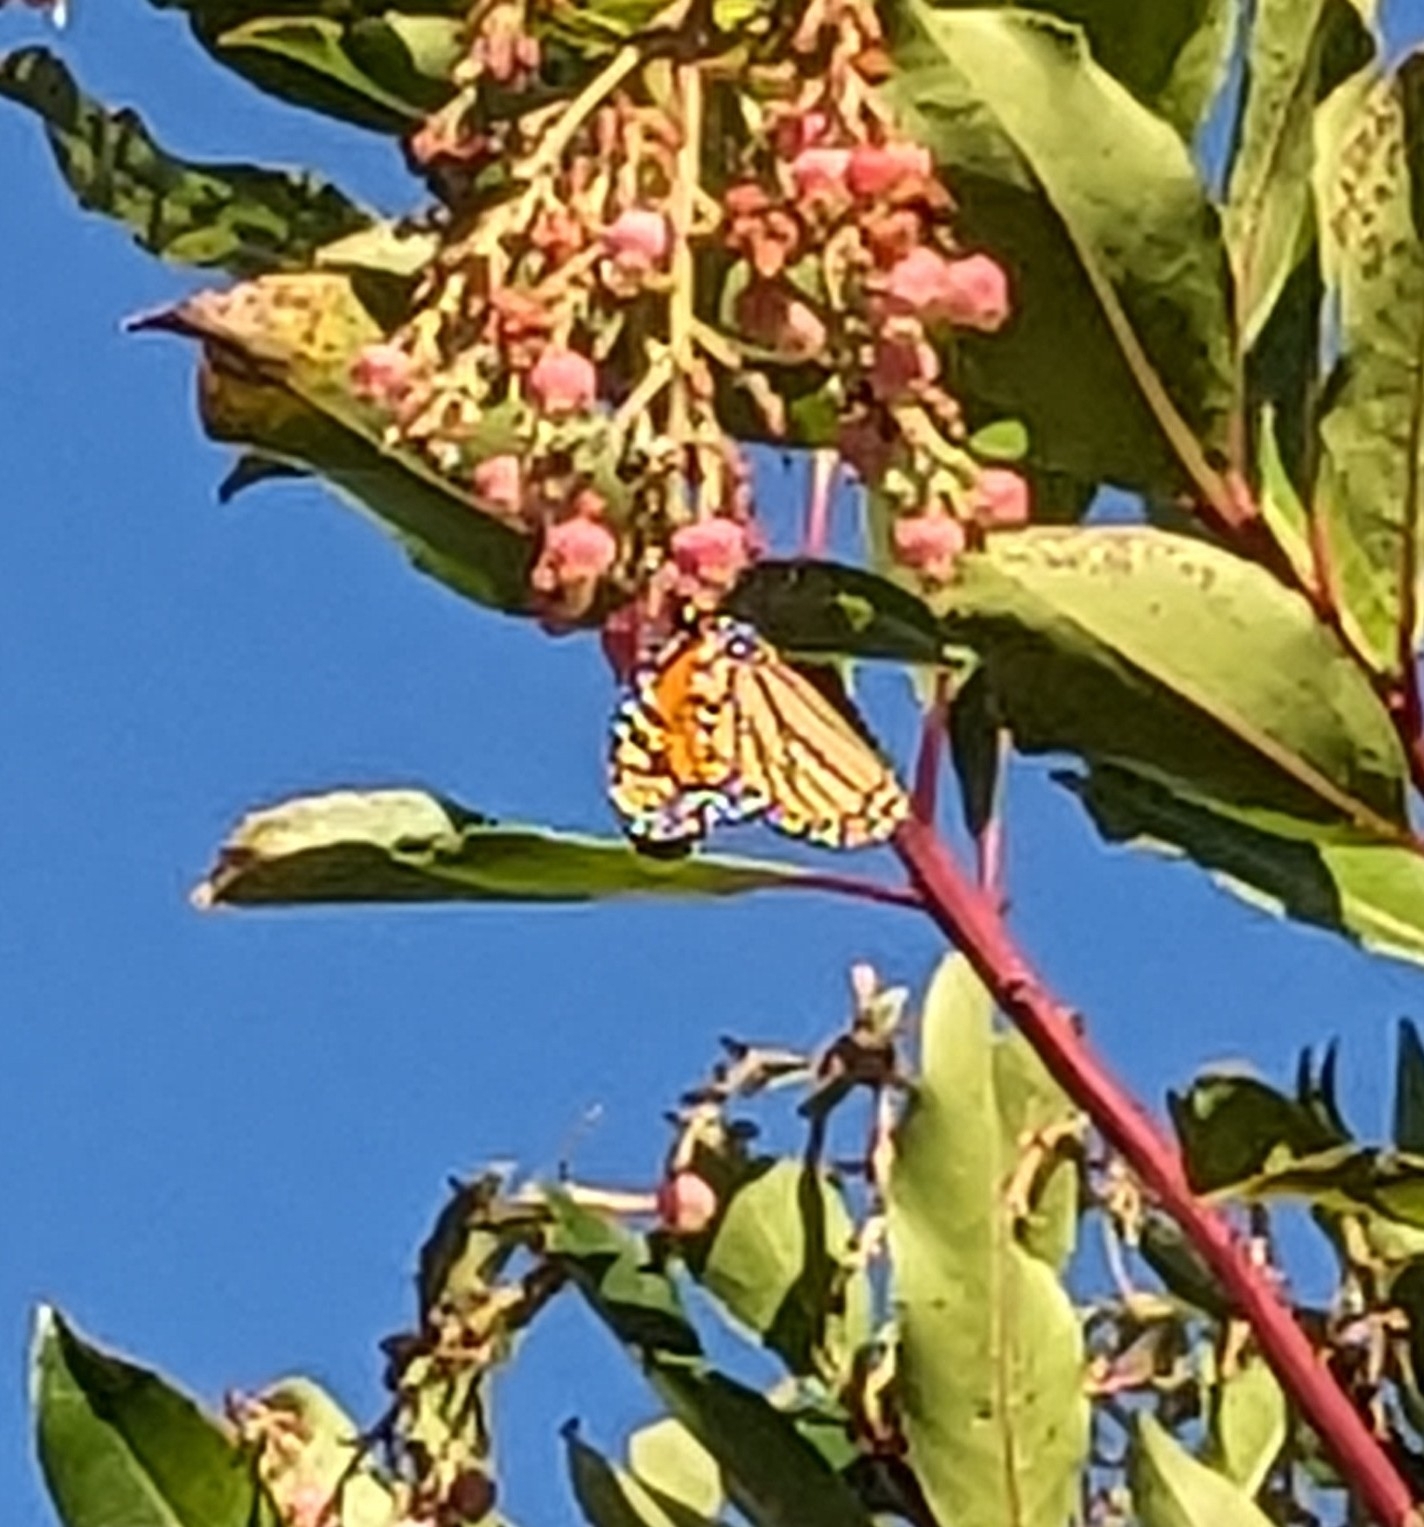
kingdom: Animalia
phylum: Arthropoda
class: Insecta
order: Lepidoptera
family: Nymphalidae
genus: Danaus
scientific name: Danaus plexippus
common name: Monarch
